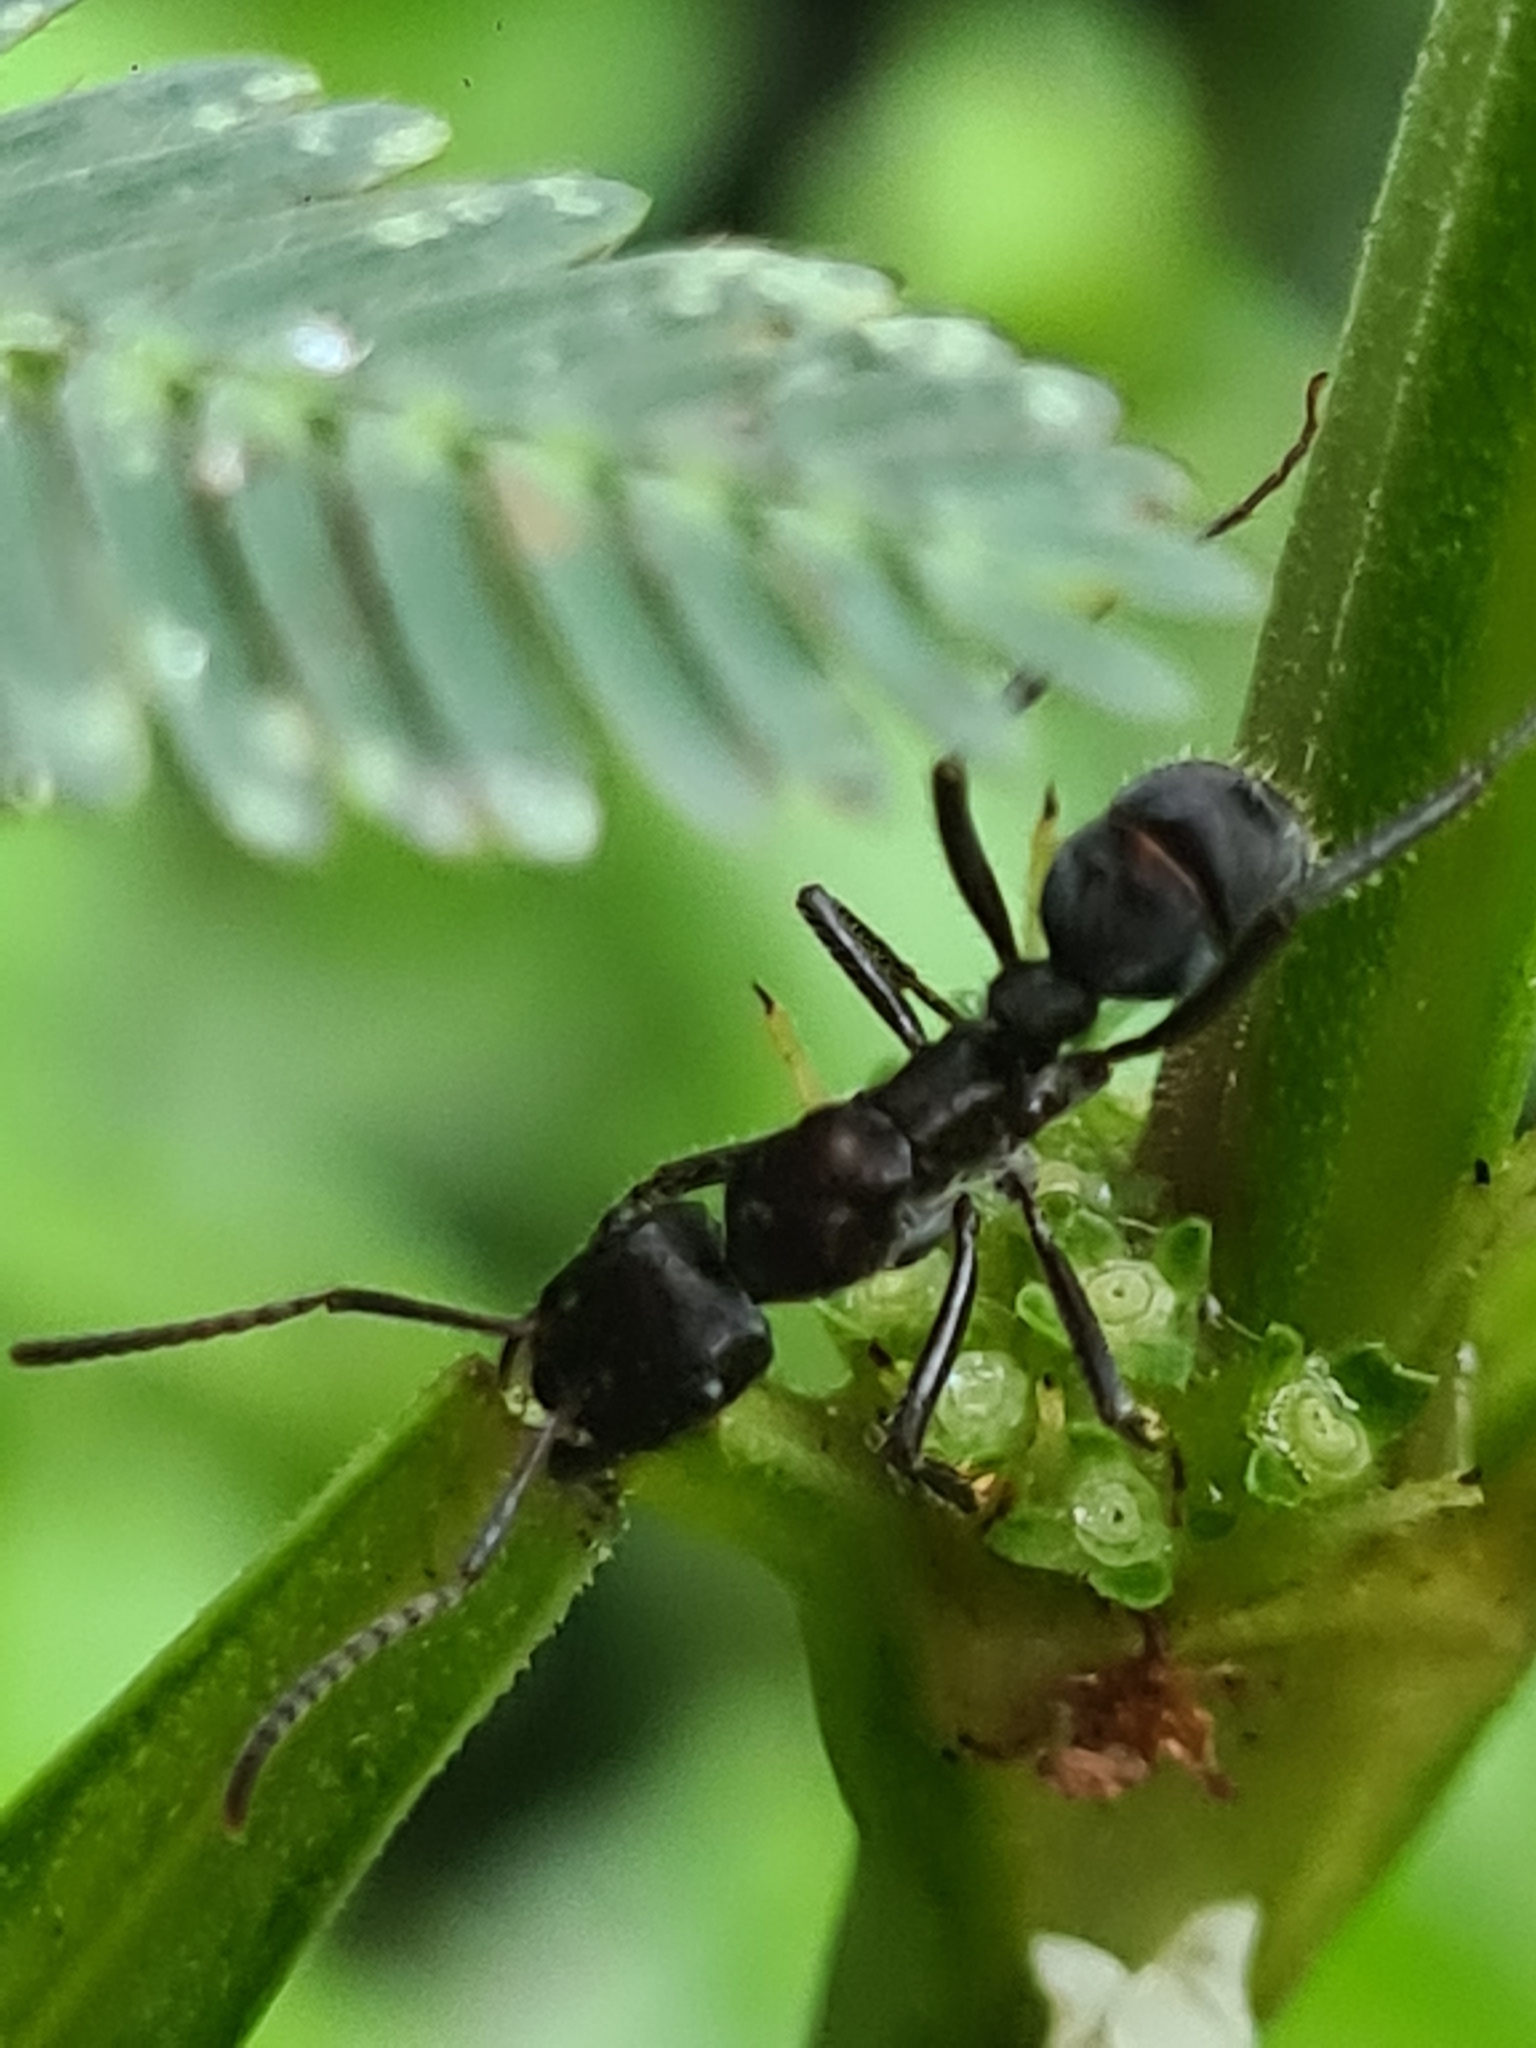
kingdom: Animalia
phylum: Arthropoda
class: Insecta
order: Hymenoptera
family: Formicidae
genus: Ectatomma
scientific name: Ectatomma brunneum
